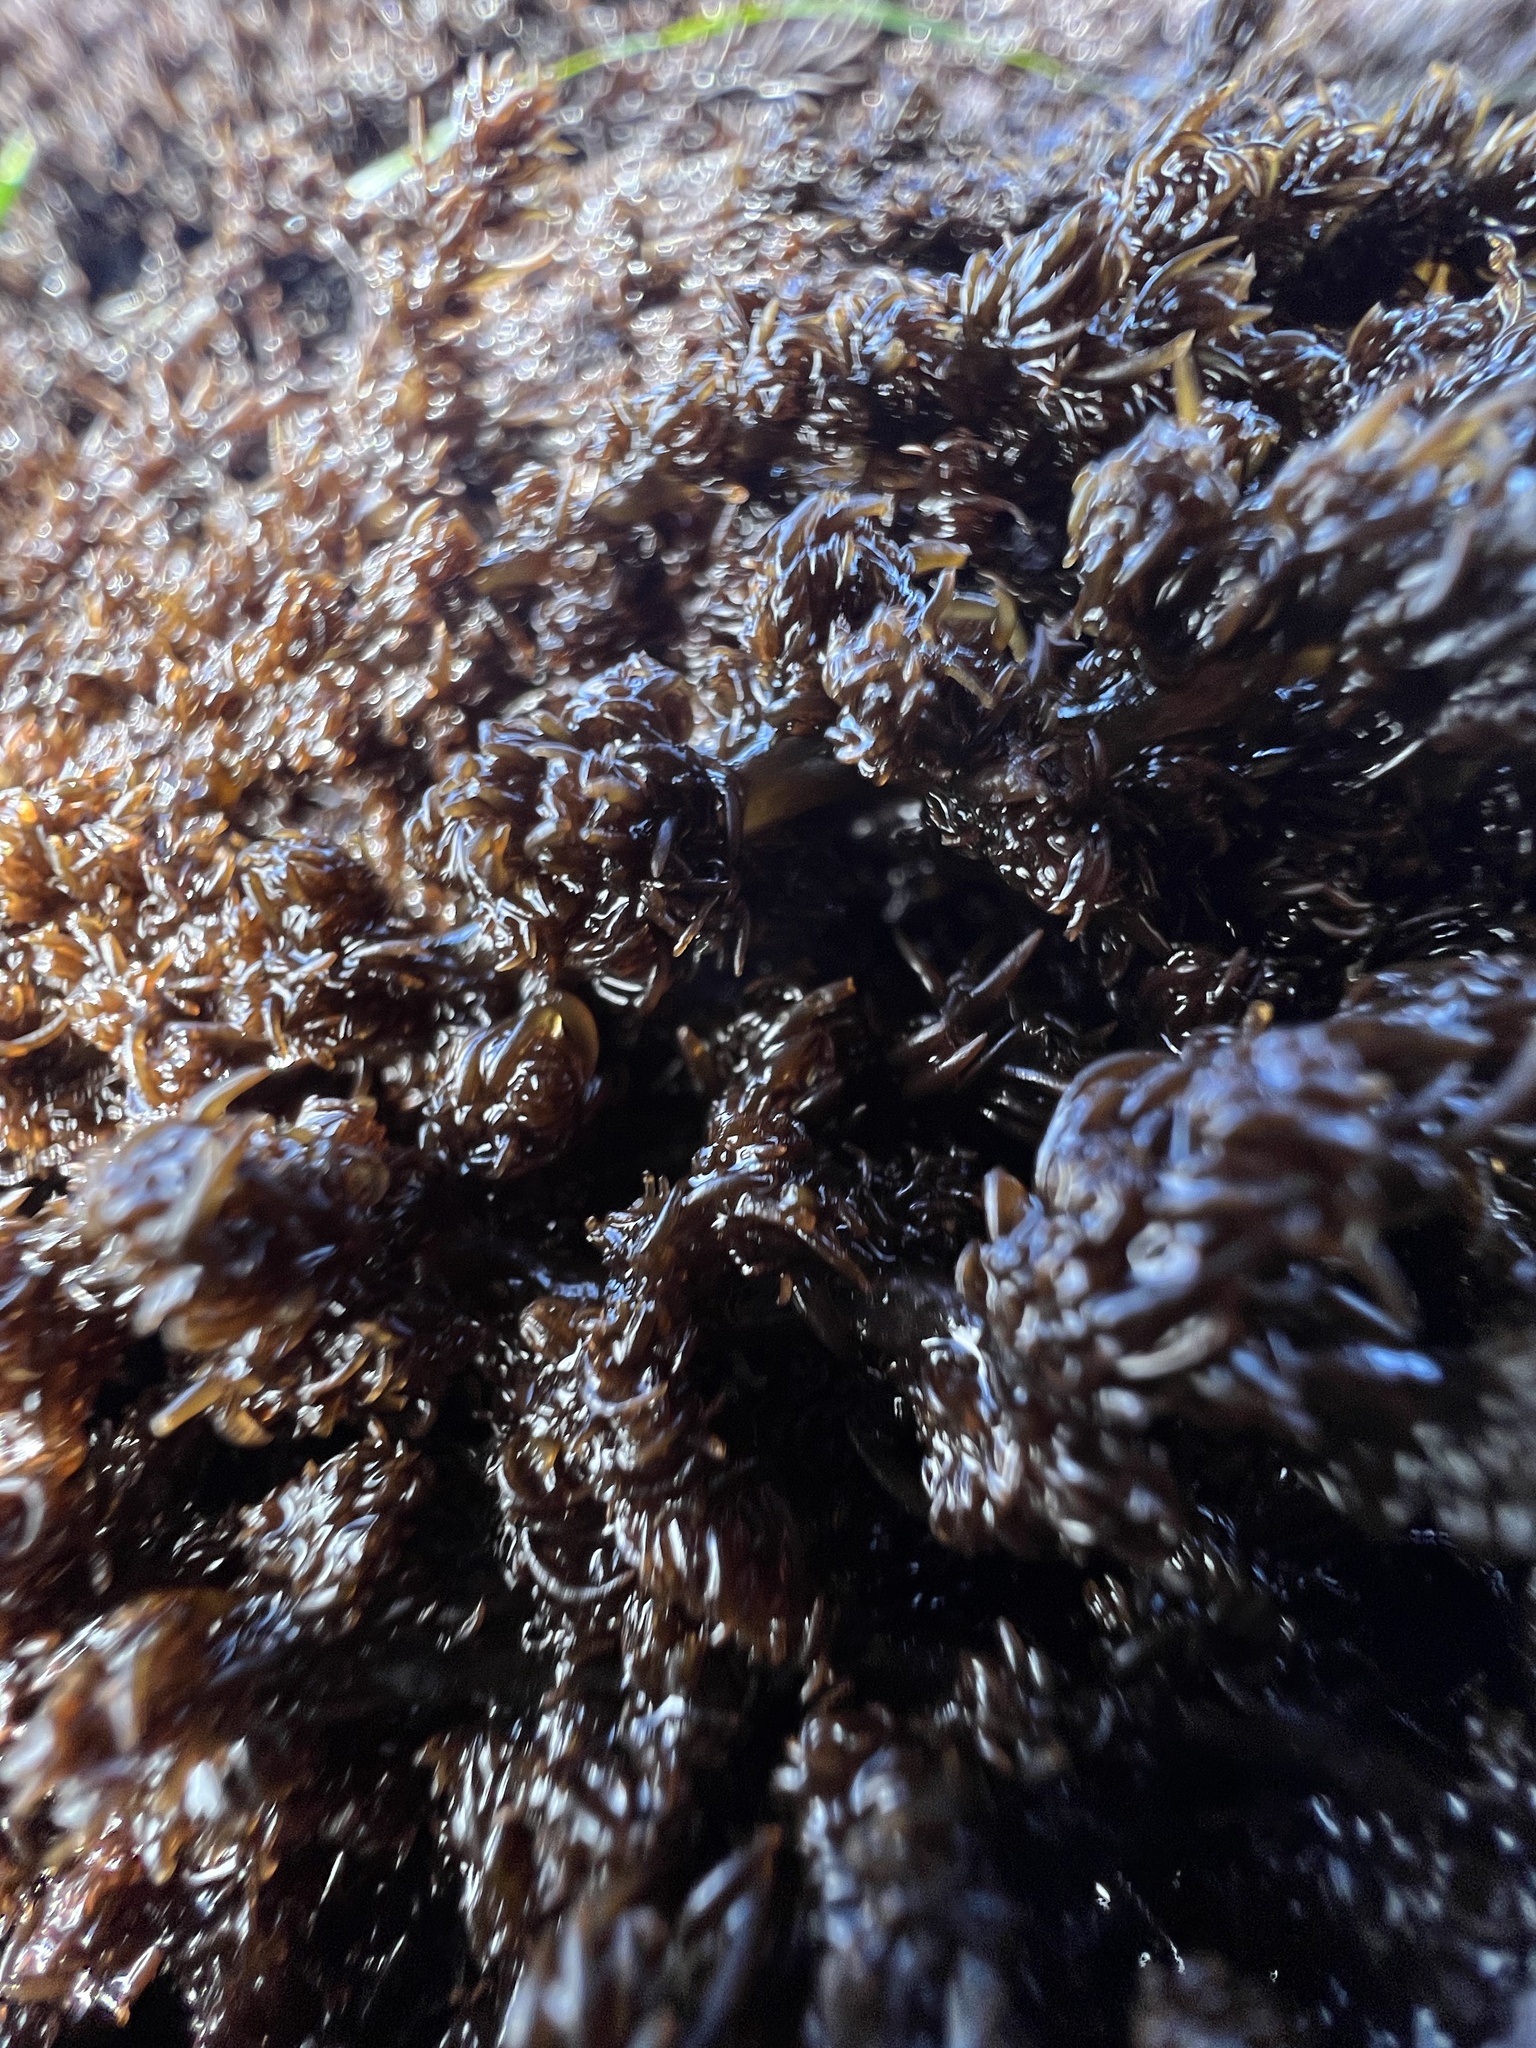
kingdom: Plantae
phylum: Rhodophyta
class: Florideophyceae
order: Ceramiales
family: Rhodomelaceae
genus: Neorhodomela
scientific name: Neorhodomela larix
